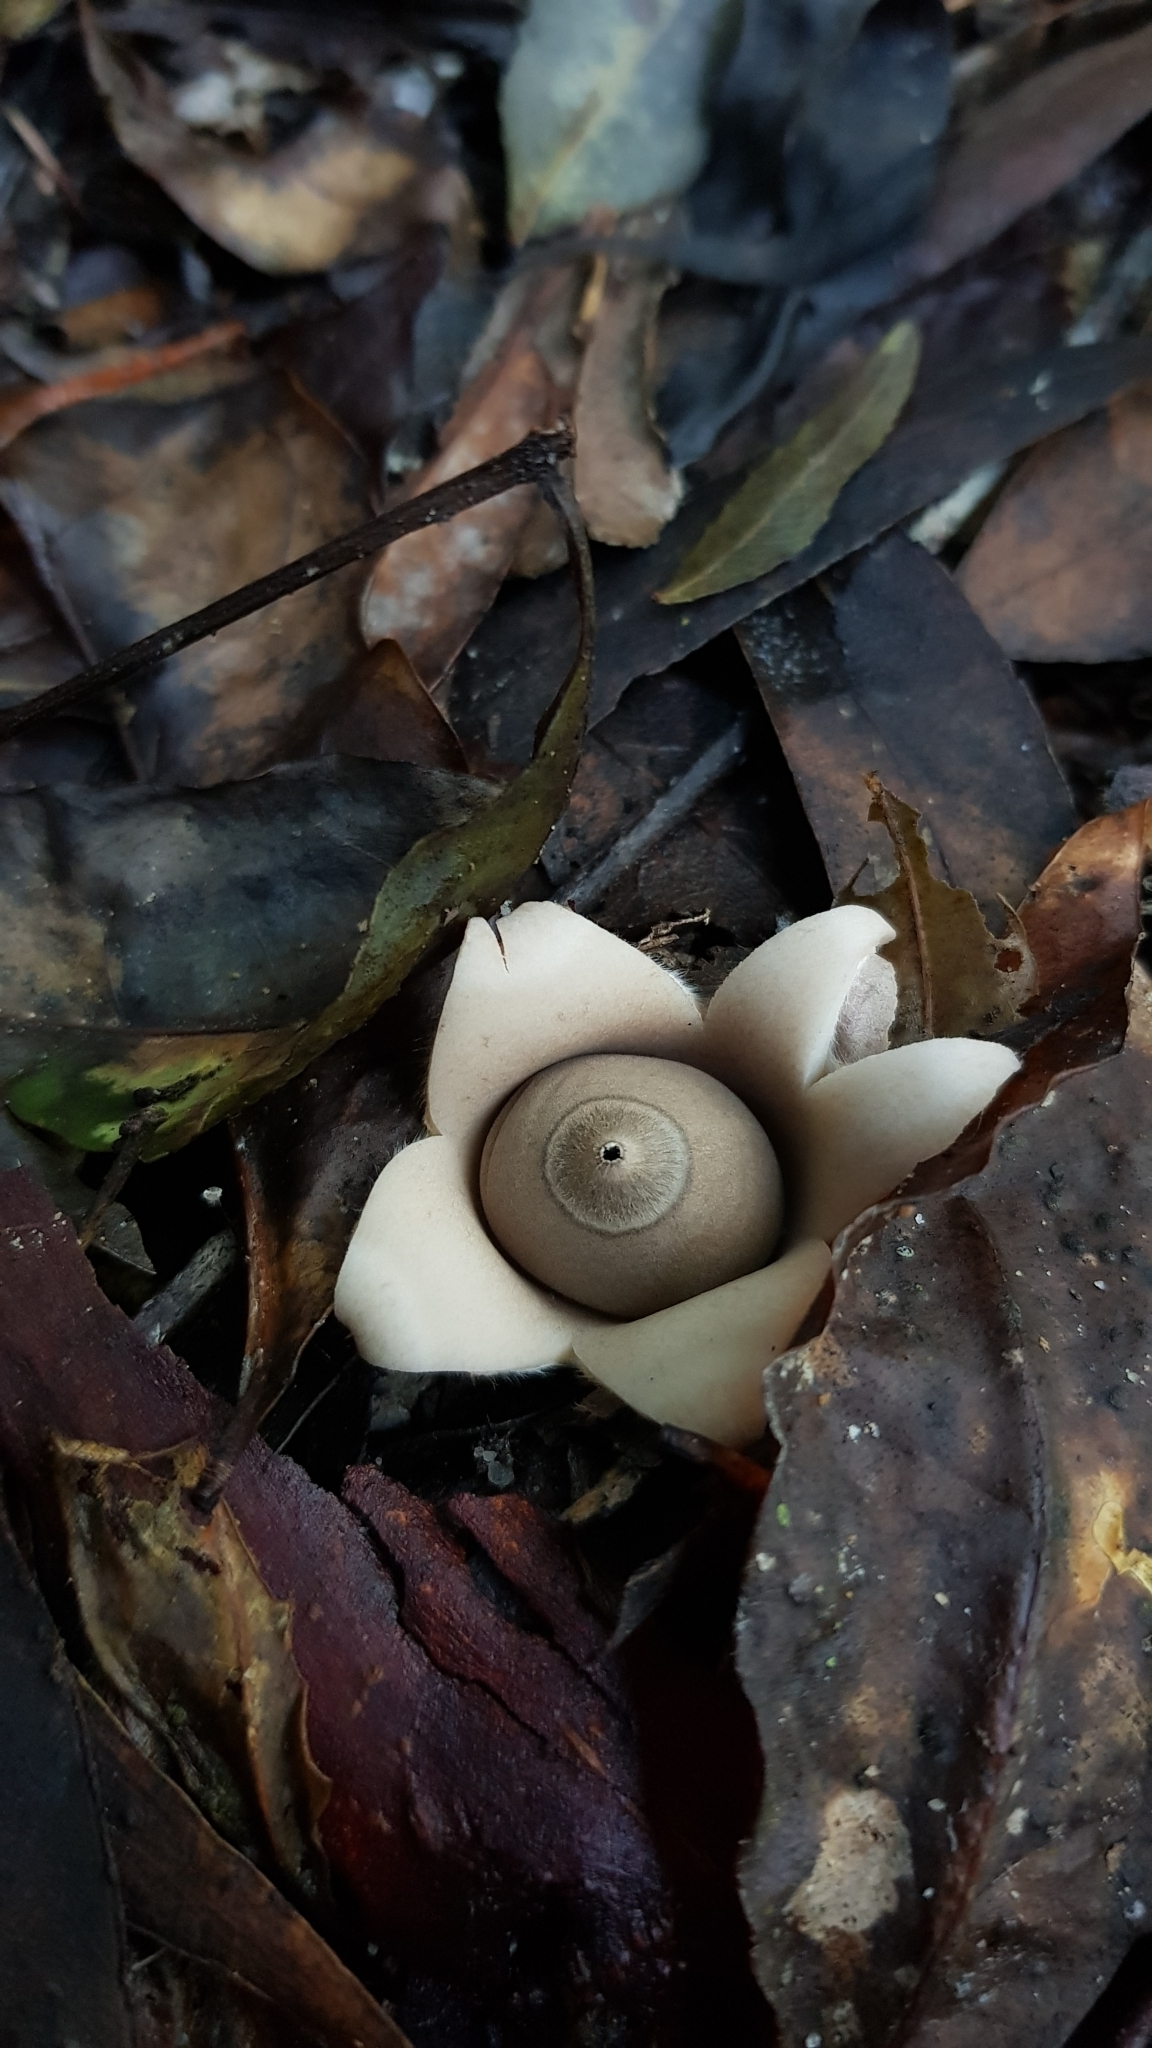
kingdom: Fungi
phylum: Basidiomycota
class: Agaricomycetes
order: Geastrales
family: Geastraceae
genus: Geastrum
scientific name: Geastrum triplex
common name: Collared earthstar
